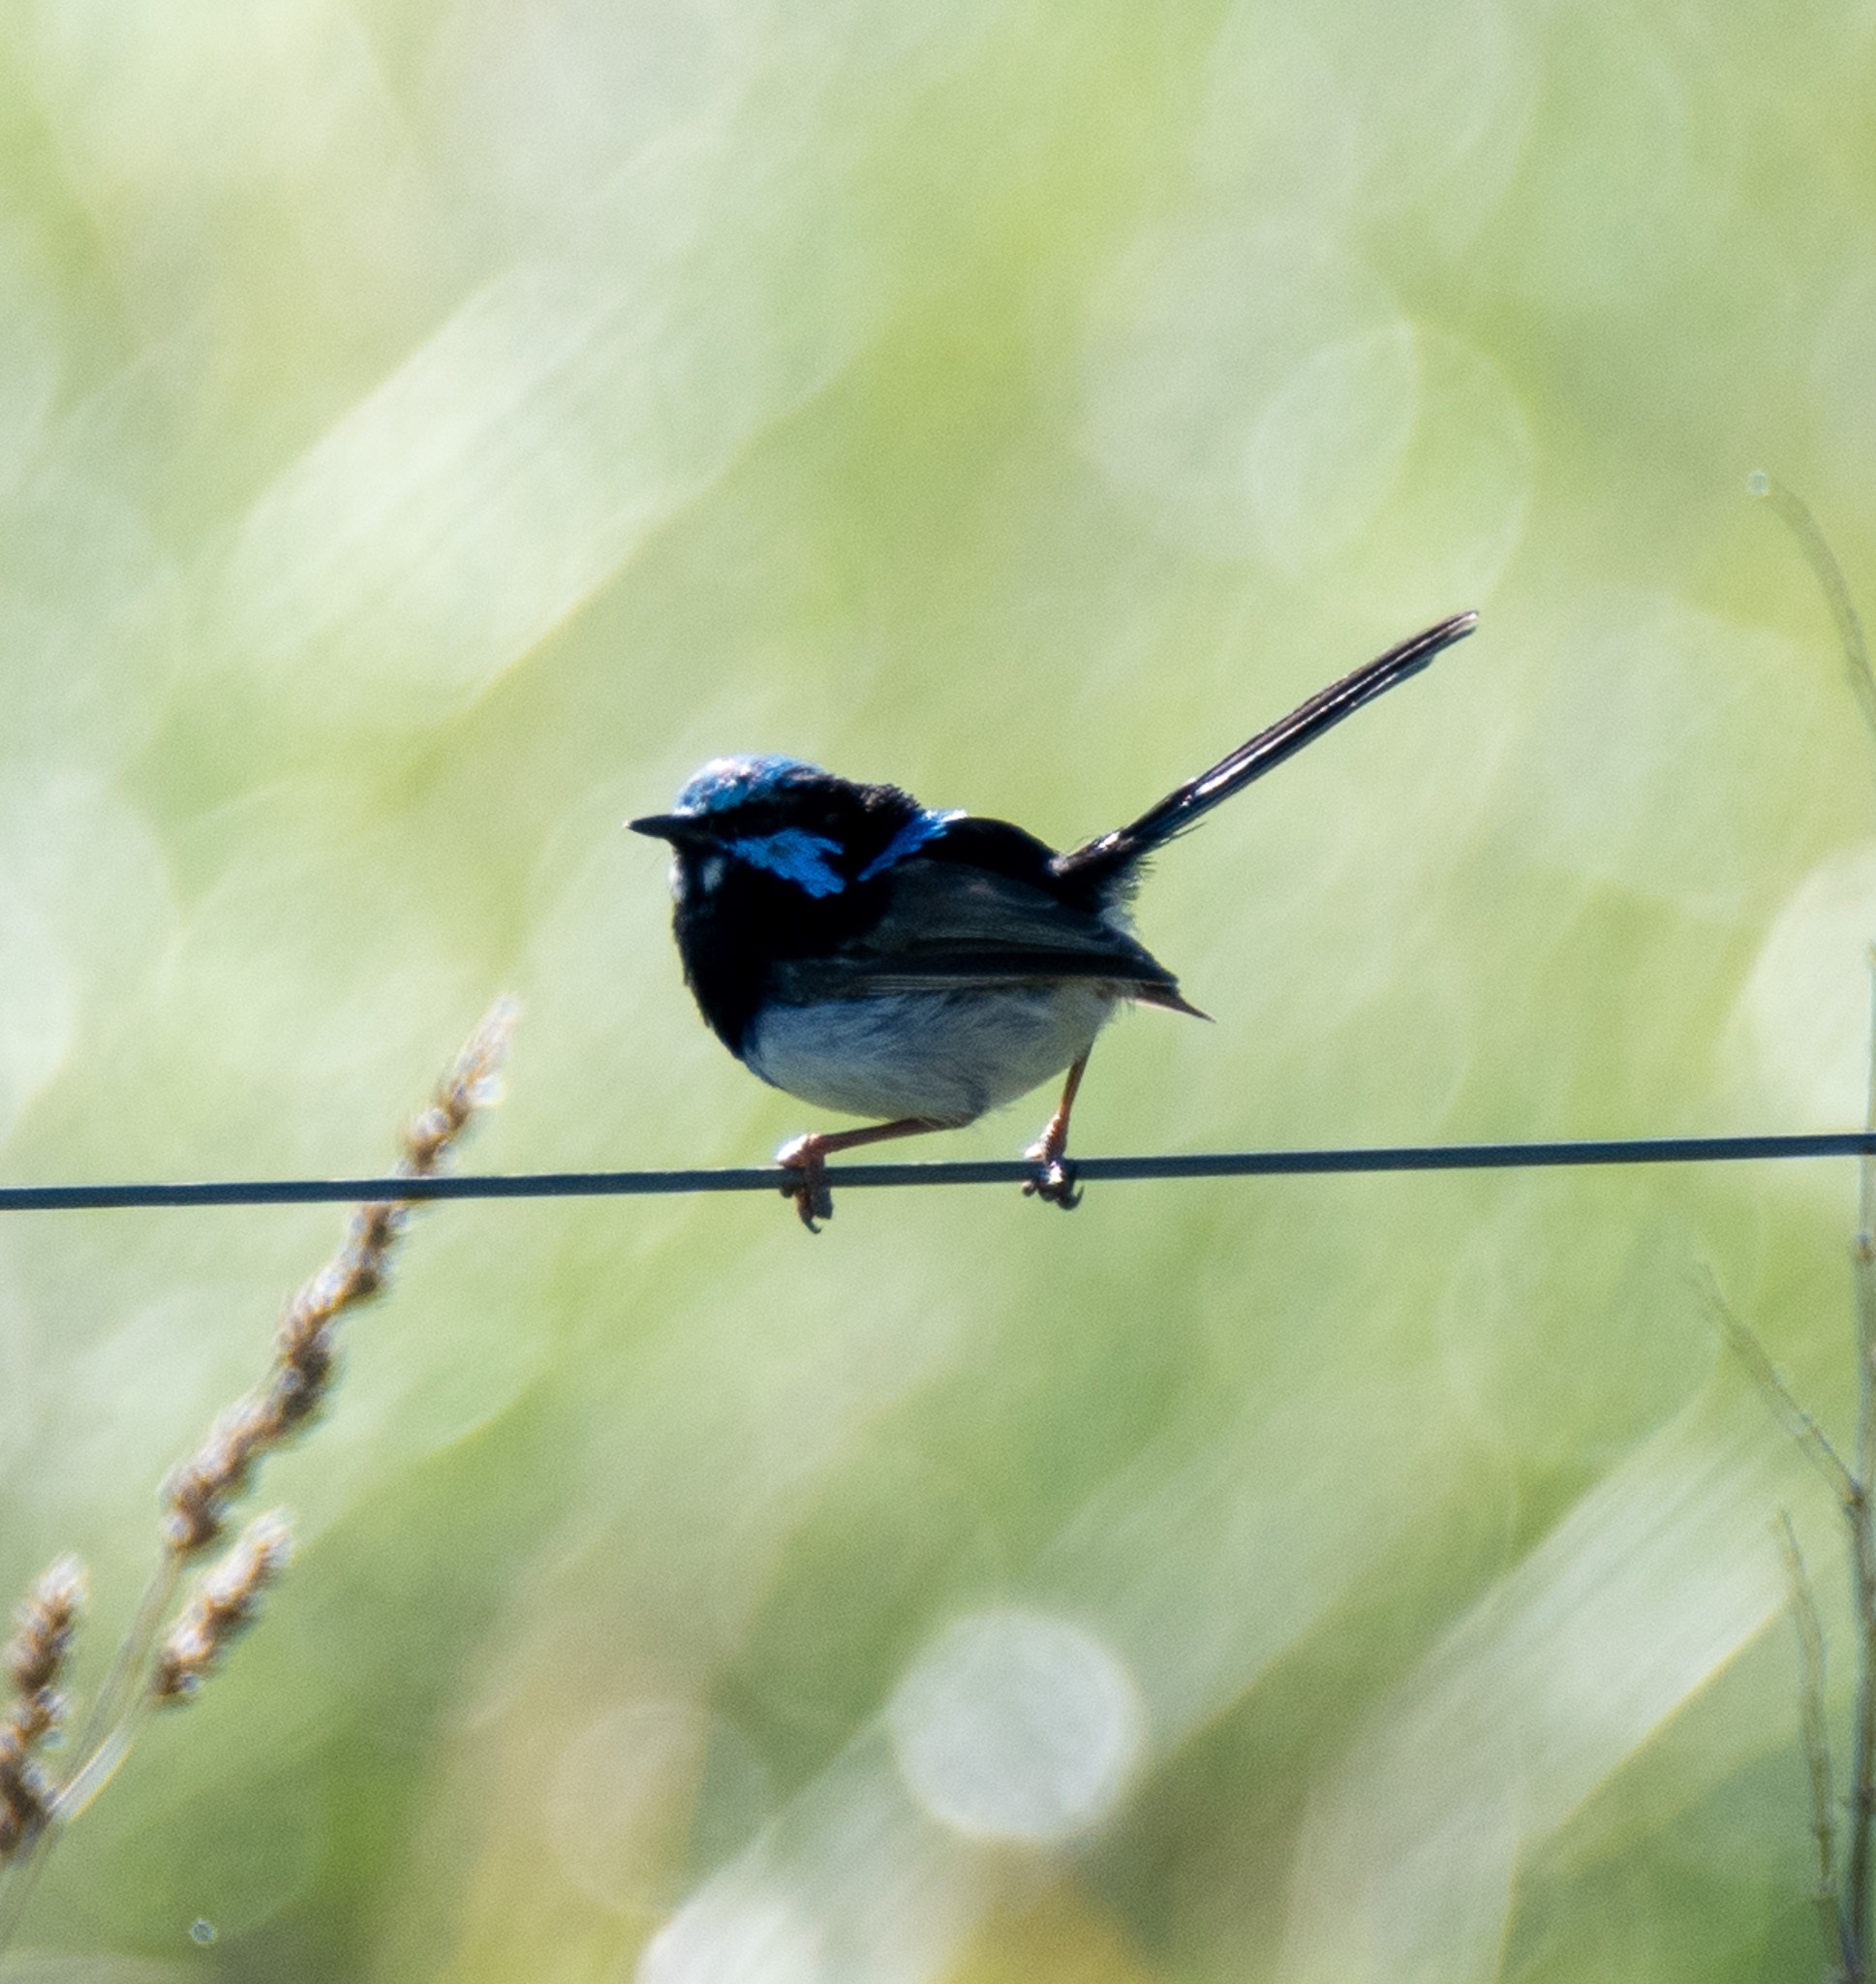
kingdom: Animalia
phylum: Chordata
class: Aves
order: Passeriformes
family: Maluridae
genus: Malurus
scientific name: Malurus cyaneus
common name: Superb fairywren
